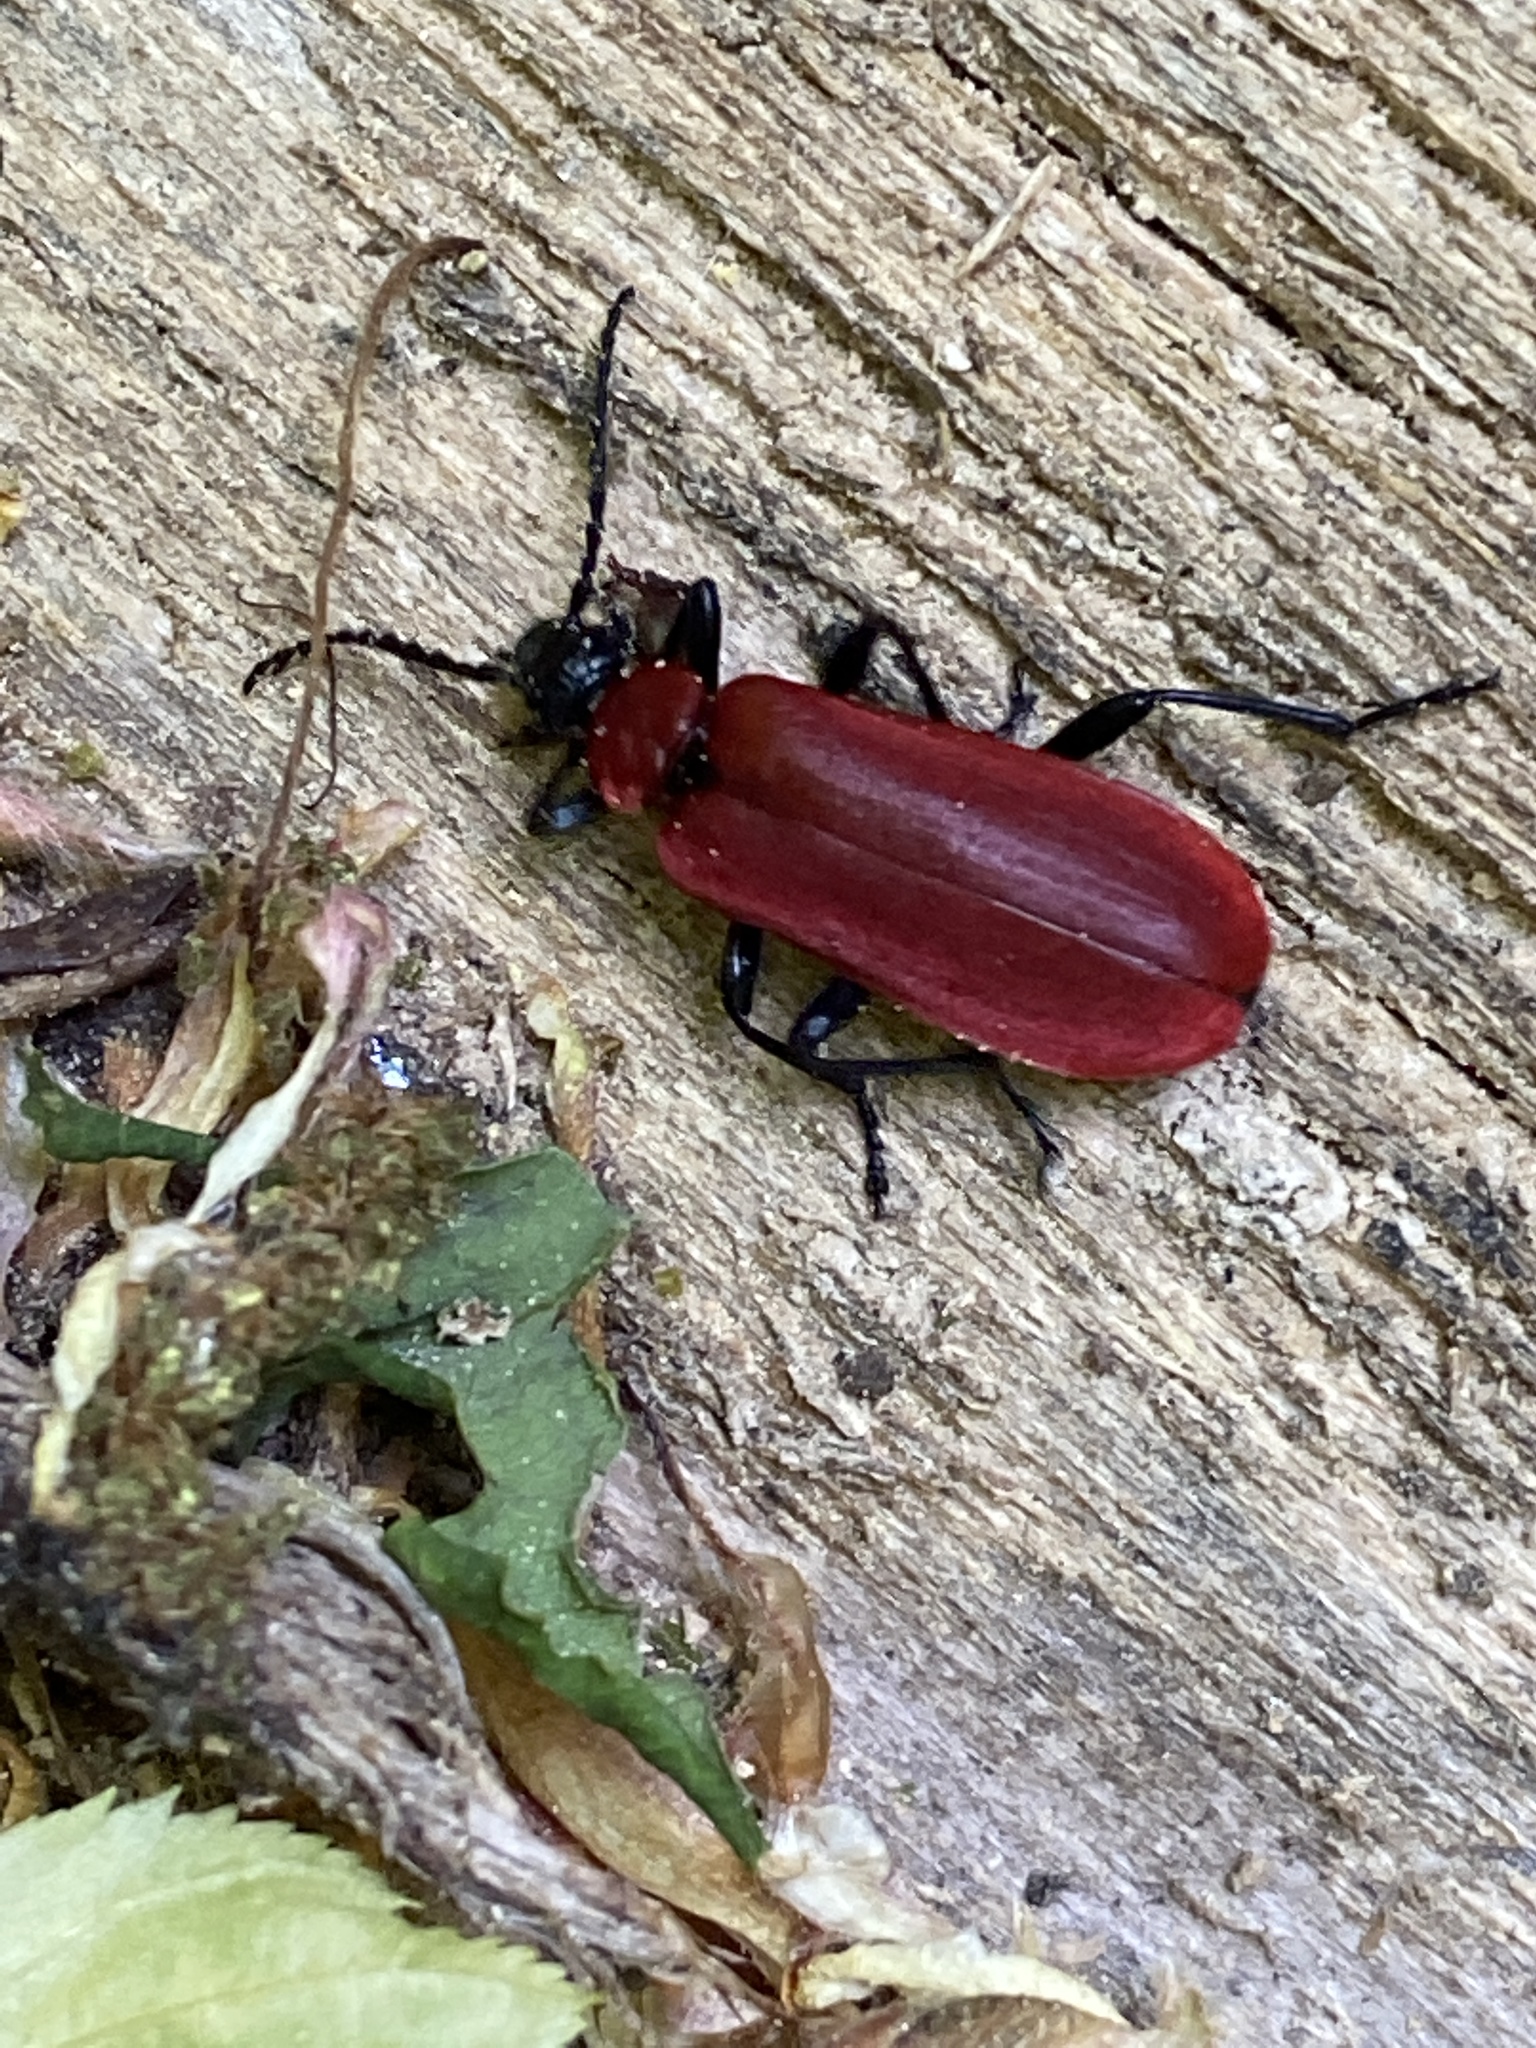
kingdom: Animalia
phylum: Arthropoda
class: Insecta
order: Coleoptera
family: Pyrochroidae
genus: Pyrochroa
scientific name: Pyrochroa coccinea
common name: Black-headed cardinal beetle
